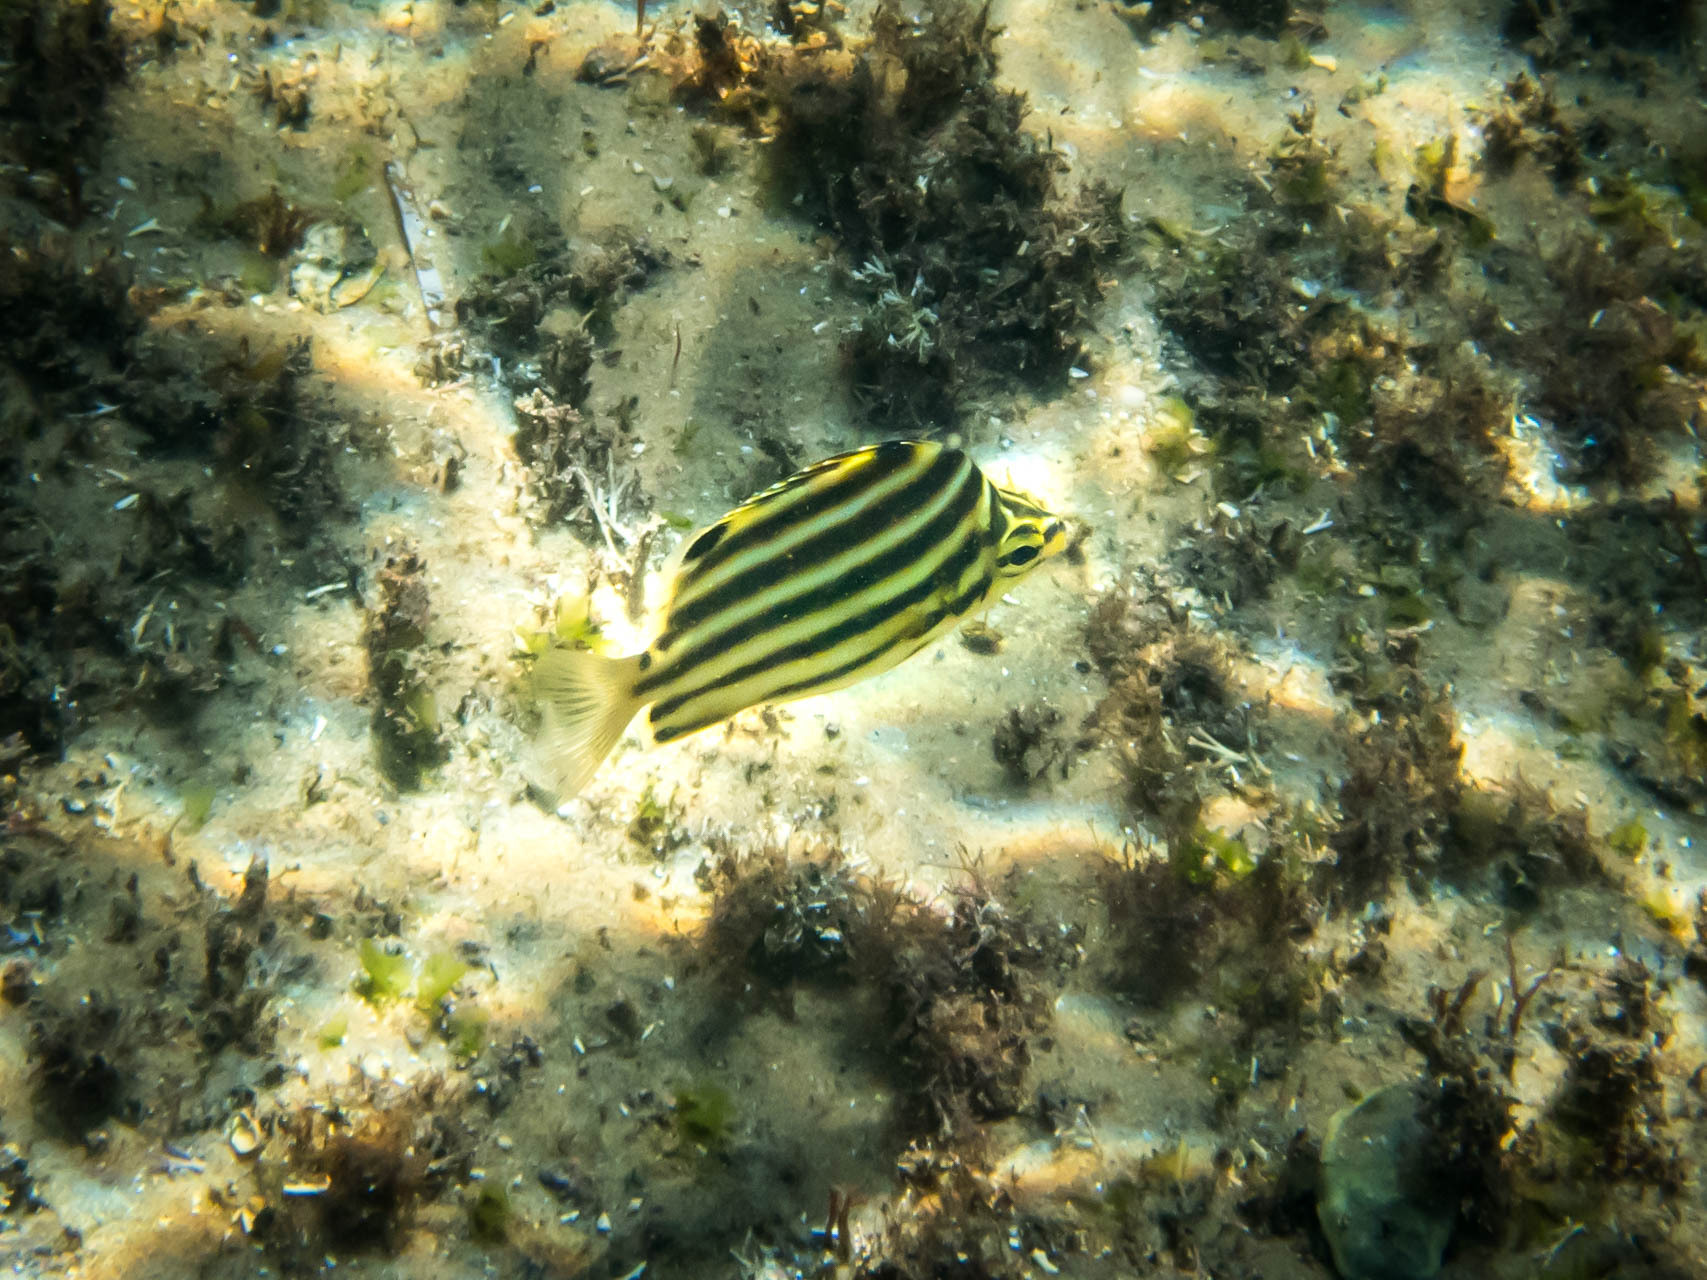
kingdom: Animalia
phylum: Chordata
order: Perciformes
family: Kyphosidae
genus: Microcanthus
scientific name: Microcanthus joyceae
